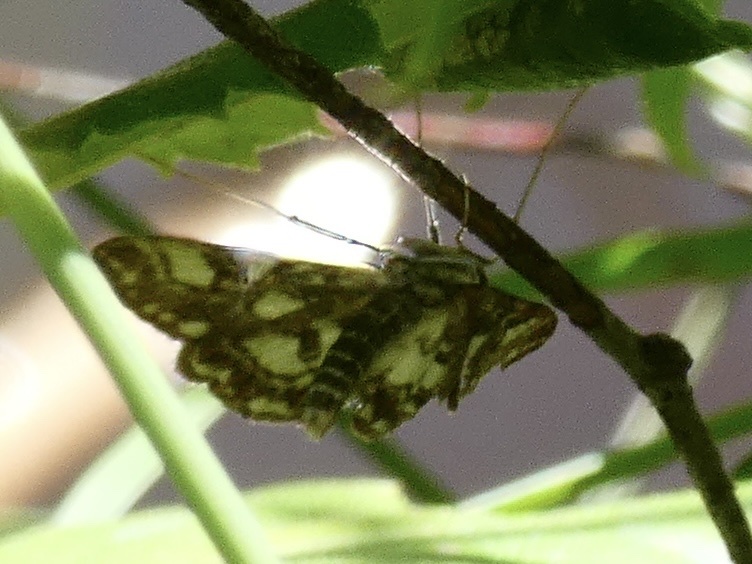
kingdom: Animalia
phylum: Arthropoda
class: Insecta
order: Lepidoptera
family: Crambidae
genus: Elophila
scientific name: Elophila nymphaeata
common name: Brown china-mark
